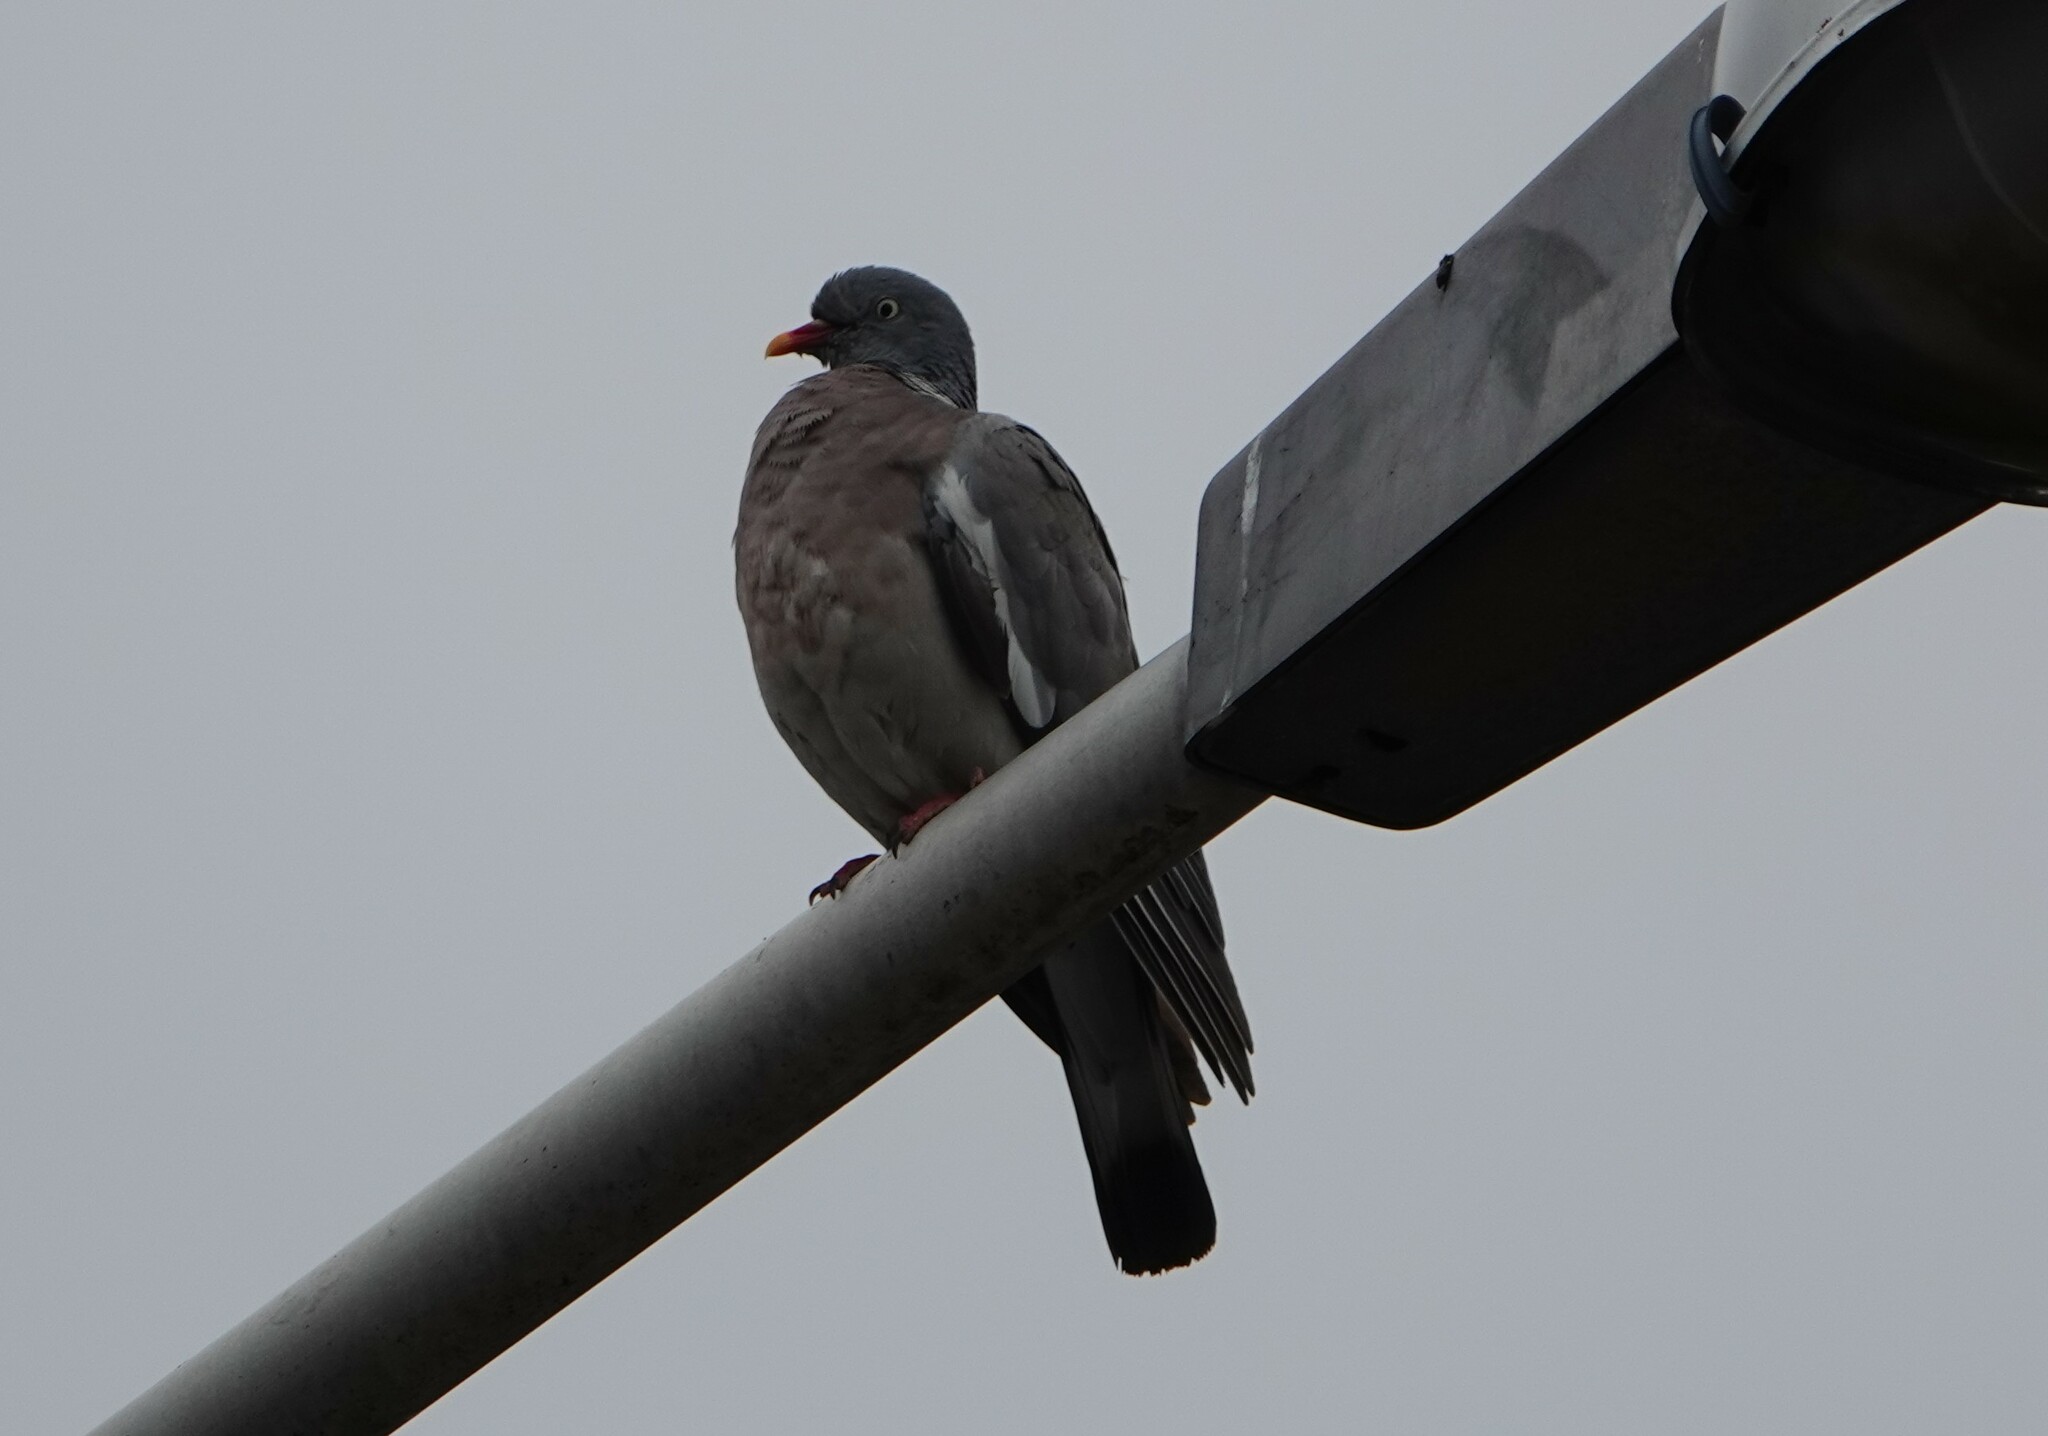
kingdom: Animalia
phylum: Chordata
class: Aves
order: Columbiformes
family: Columbidae
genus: Columba
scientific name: Columba palumbus
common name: Common wood pigeon
